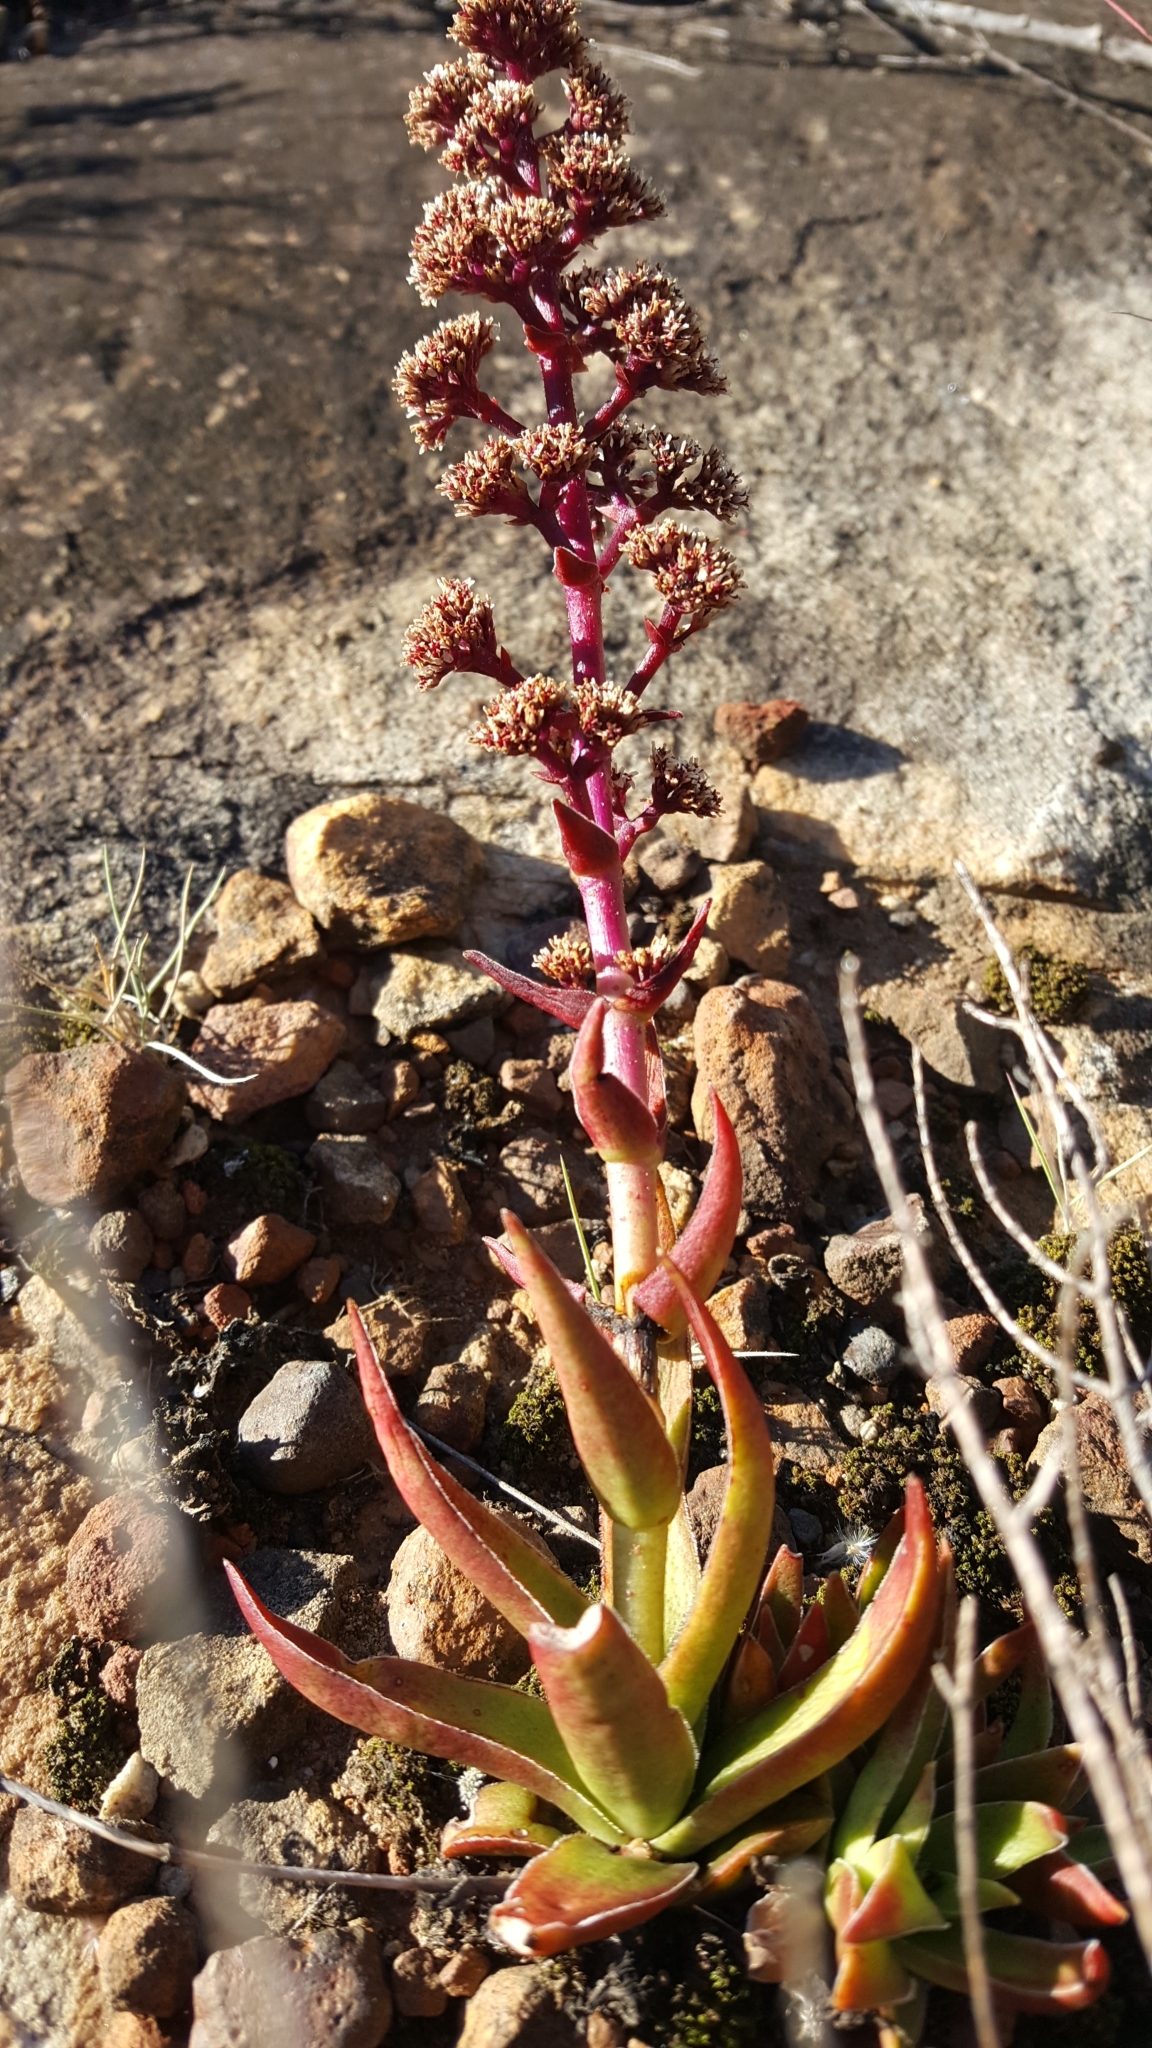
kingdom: Plantae
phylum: Tracheophyta
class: Magnoliopsida
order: Saxifragales
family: Crassulaceae
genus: Crassula
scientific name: Crassula capitella
